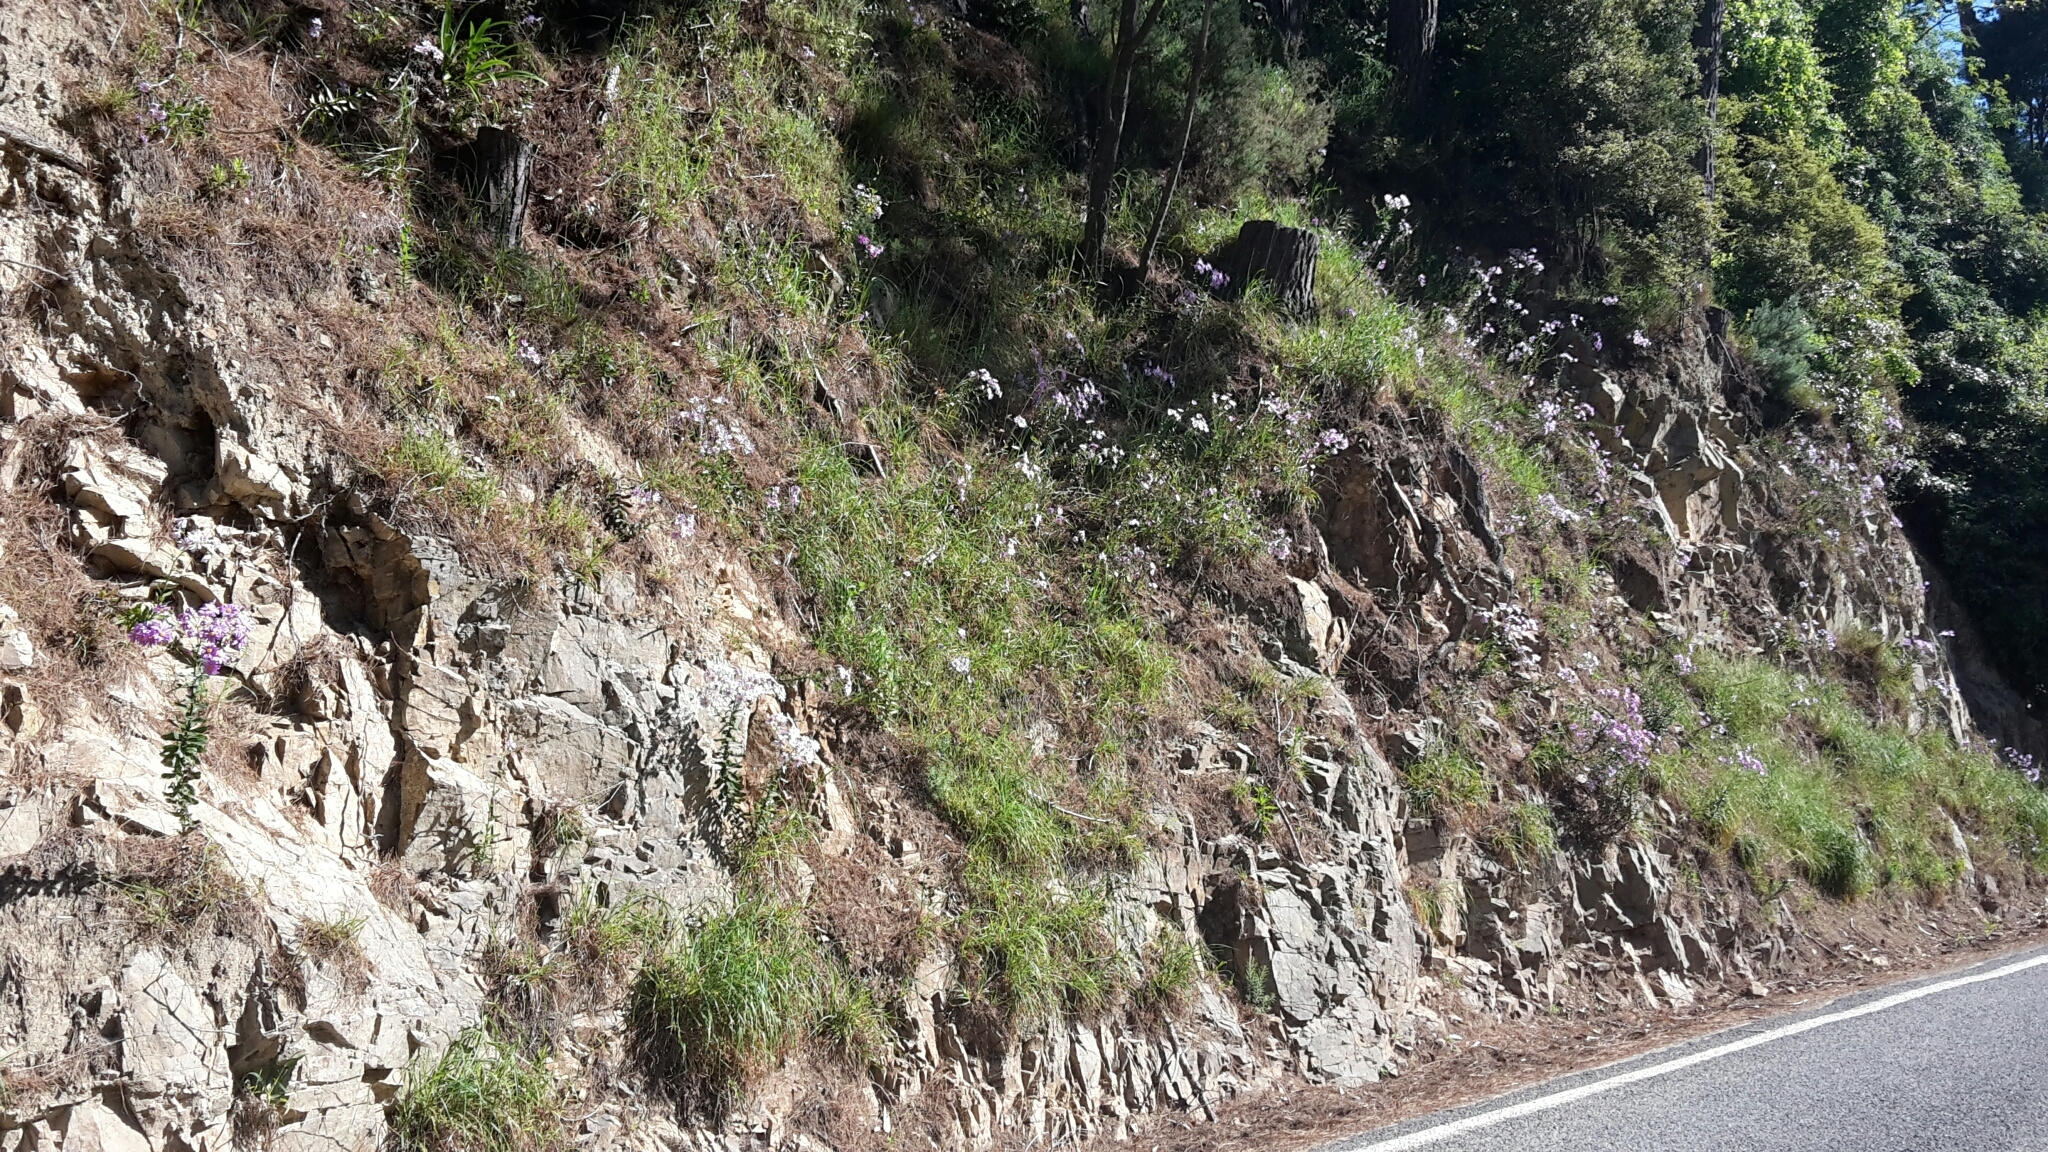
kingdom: Plantae
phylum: Tracheophyta
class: Magnoliopsida
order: Asterales
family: Asteraceae
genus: Senecio
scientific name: Senecio glastifolius
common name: Woad-leaved ragwort
